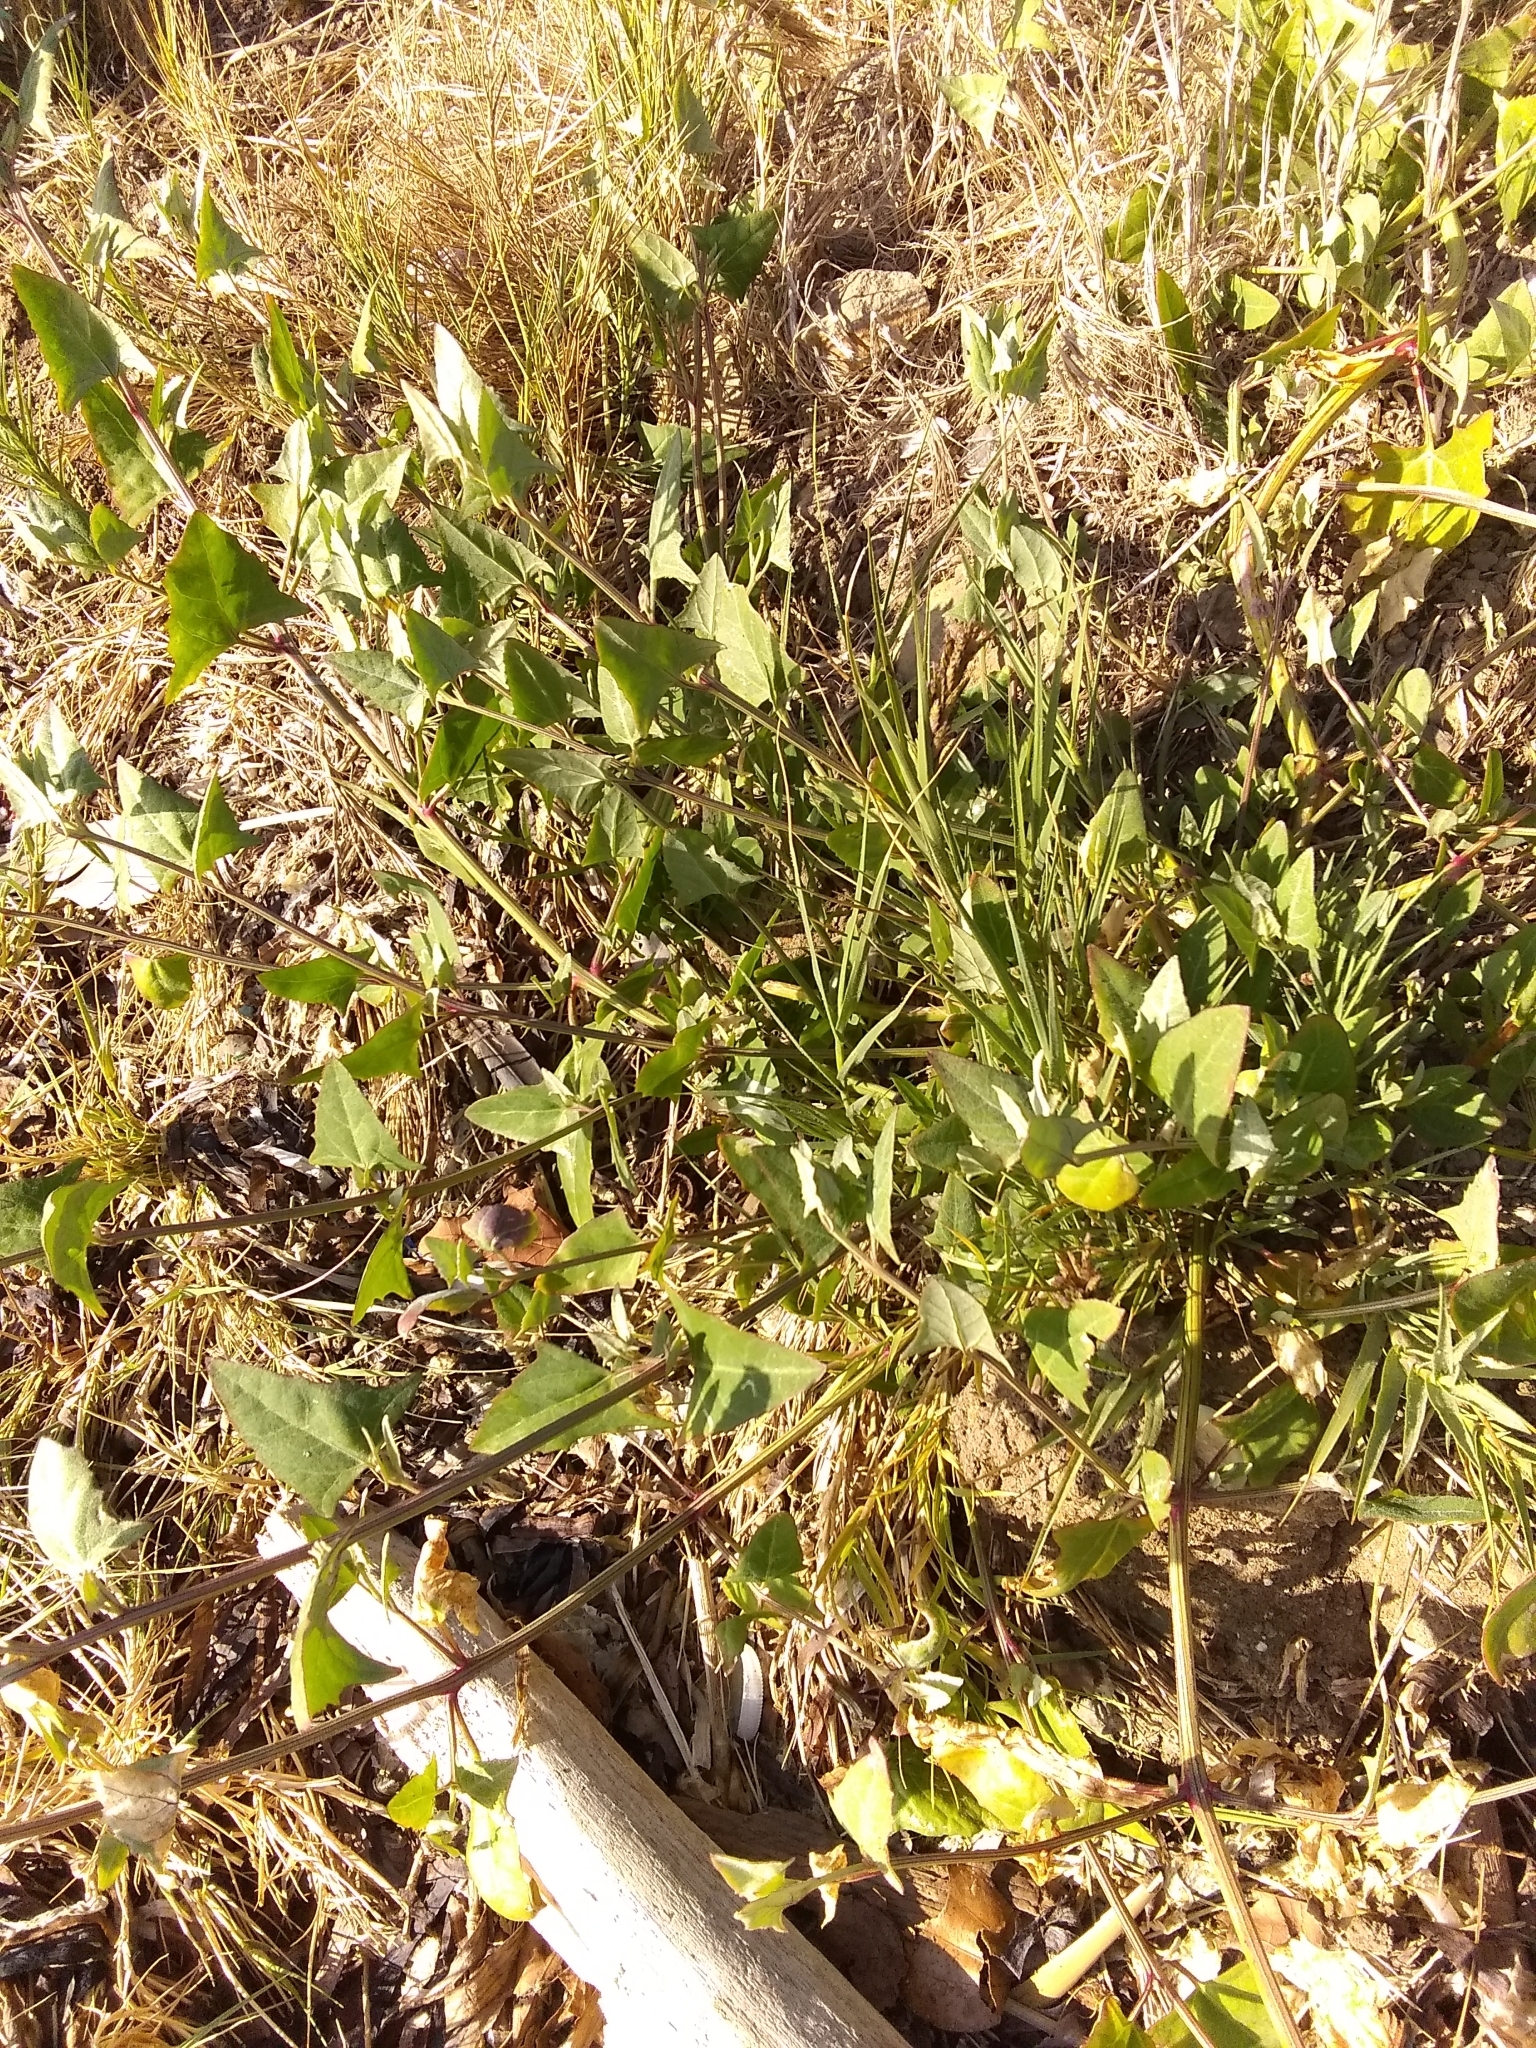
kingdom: Plantae
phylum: Tracheophyta
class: Magnoliopsida
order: Caryophyllales
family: Amaranthaceae
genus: Atriplex
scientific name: Atriplex prostrata
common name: Spear-leaved orache
